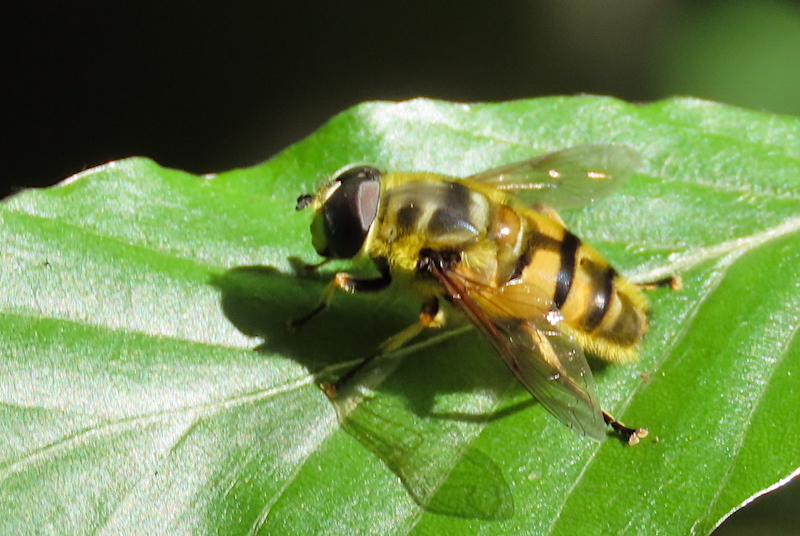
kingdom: Animalia
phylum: Arthropoda
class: Insecta
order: Diptera
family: Syrphidae
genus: Myathropa
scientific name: Myathropa florea
